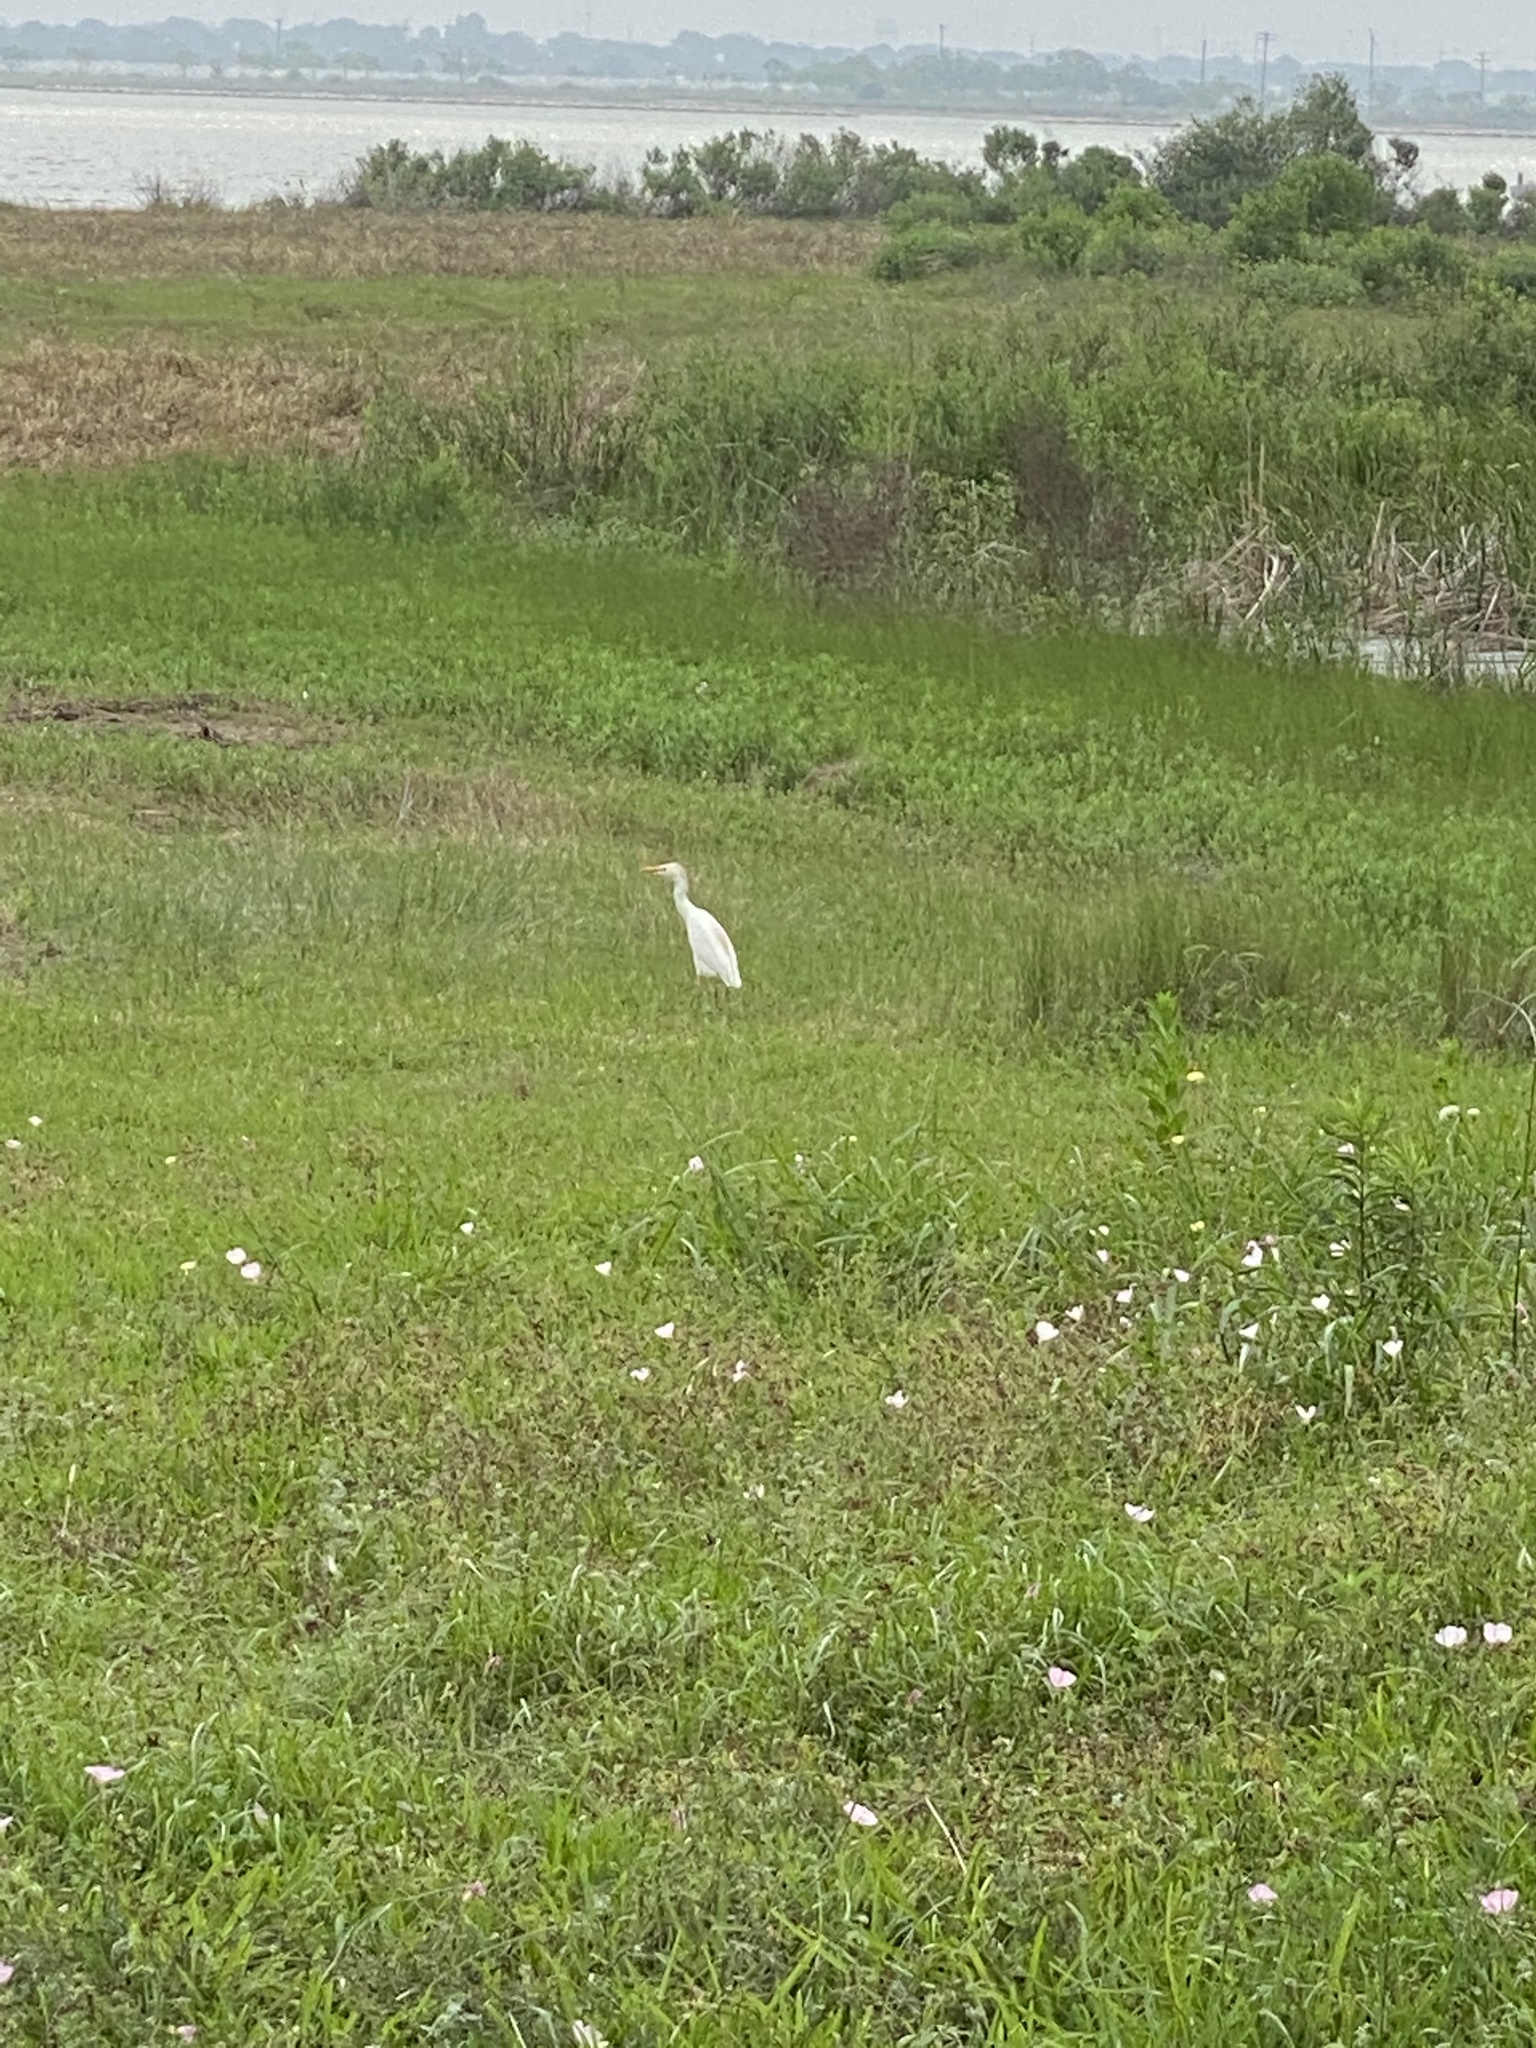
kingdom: Animalia
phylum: Chordata
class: Aves
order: Pelecaniformes
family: Ardeidae
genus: Bubulcus
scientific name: Bubulcus ibis
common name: Cattle egret
